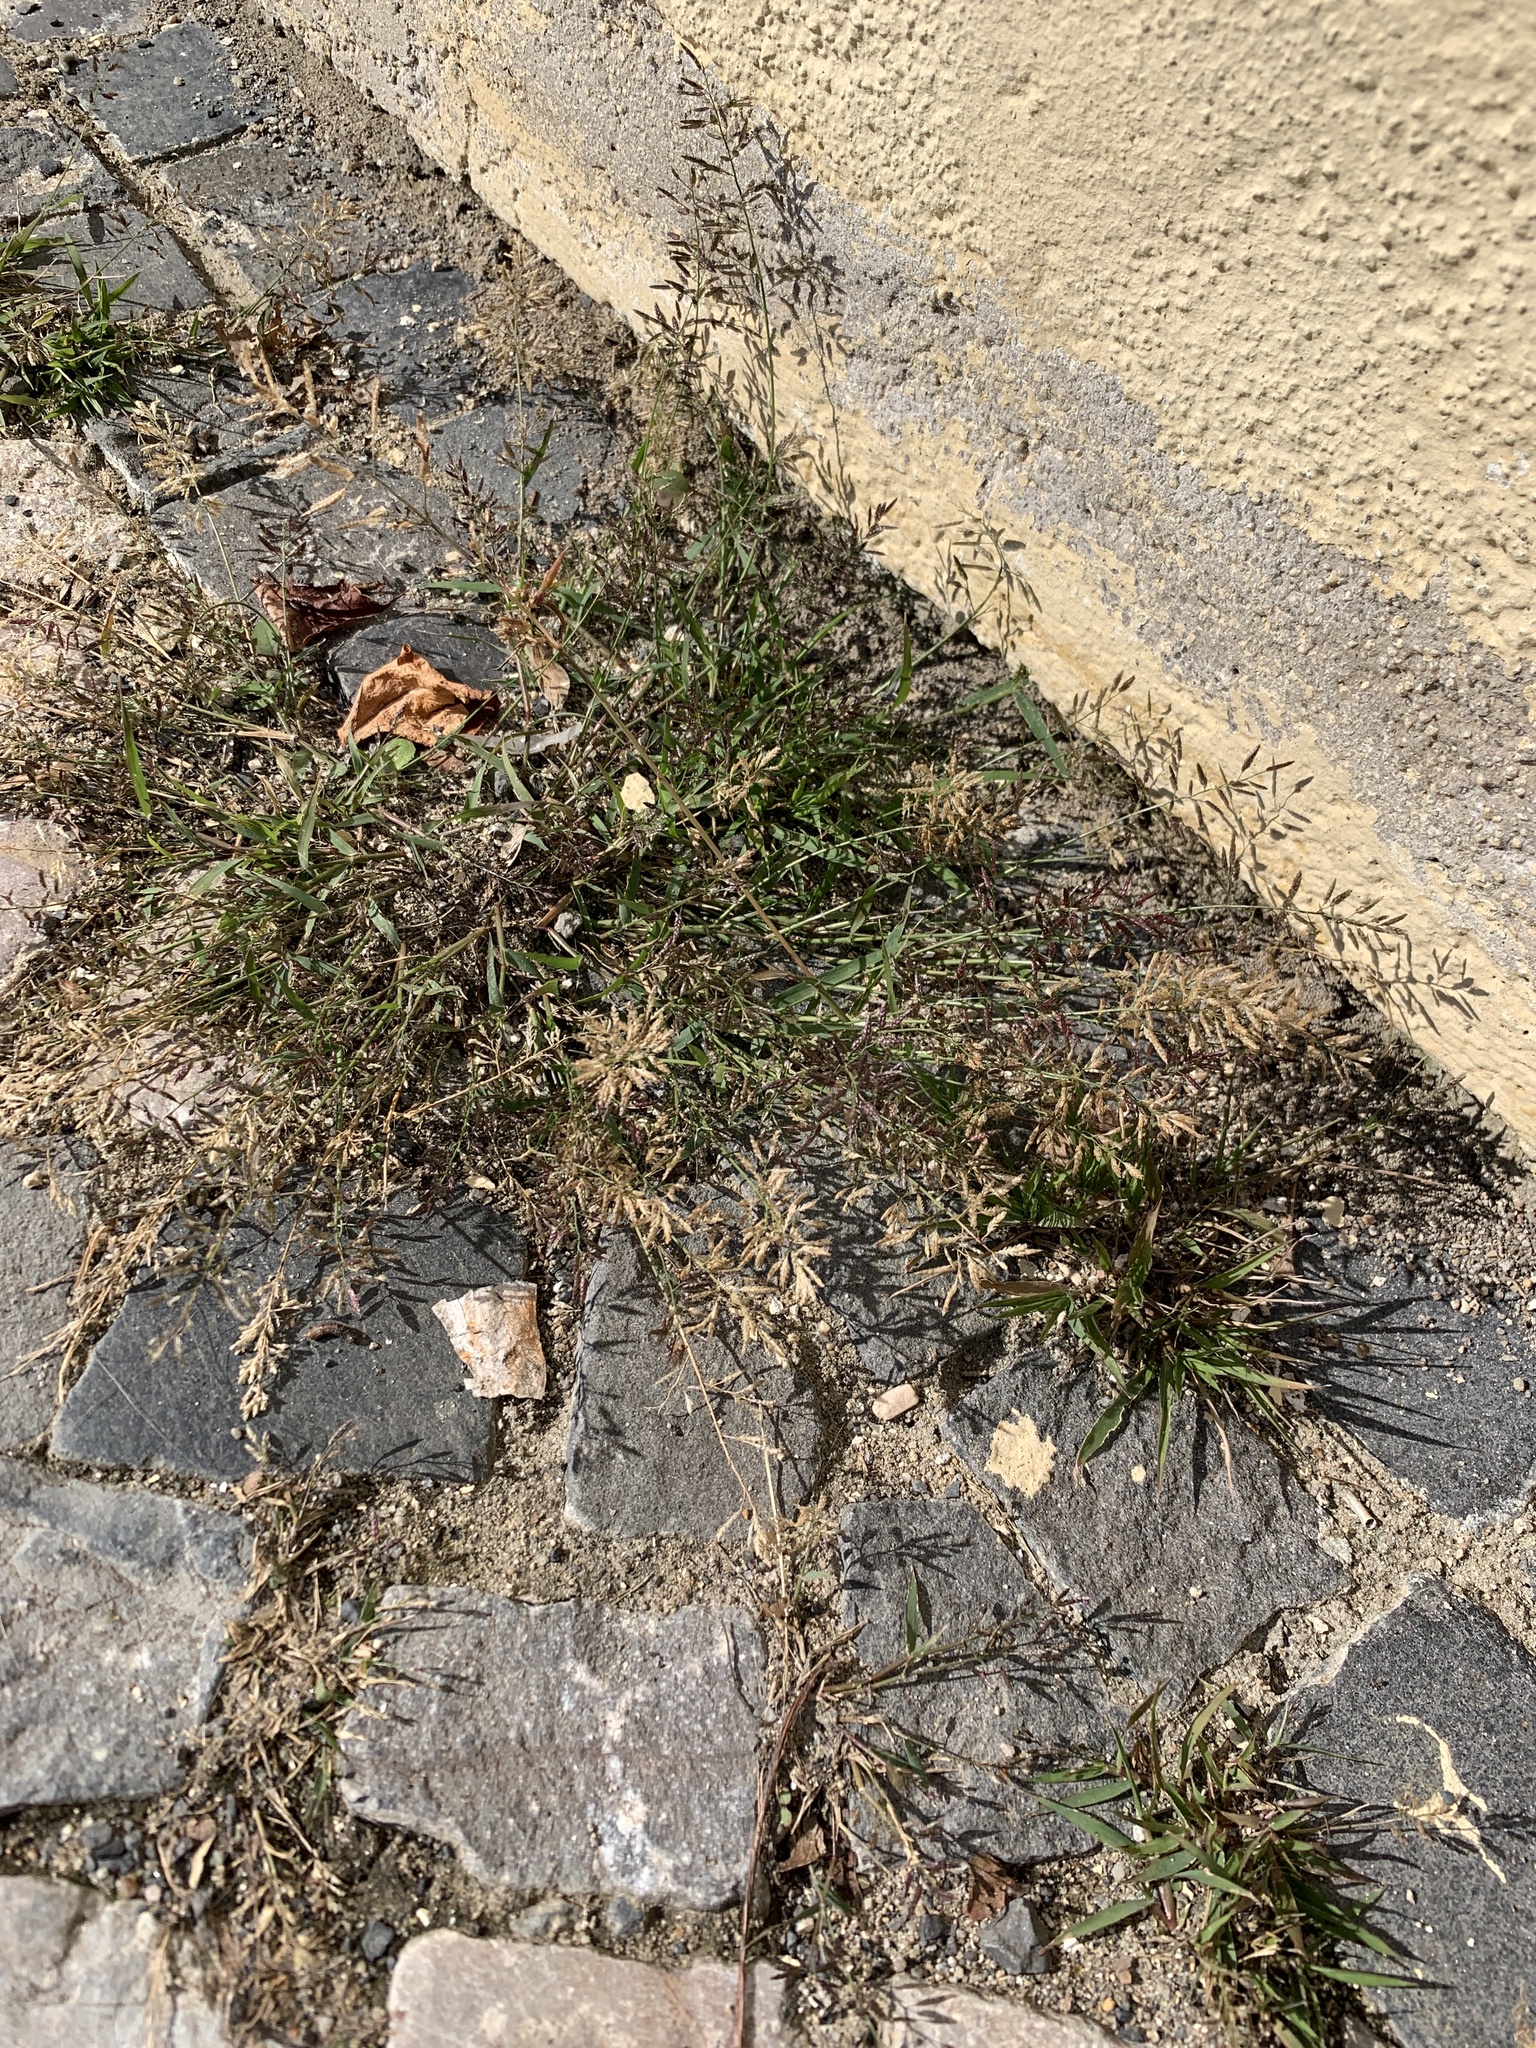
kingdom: Plantae
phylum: Tracheophyta
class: Liliopsida
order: Poales
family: Poaceae
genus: Eragrostis
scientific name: Eragrostis minor
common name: Small love-grass
